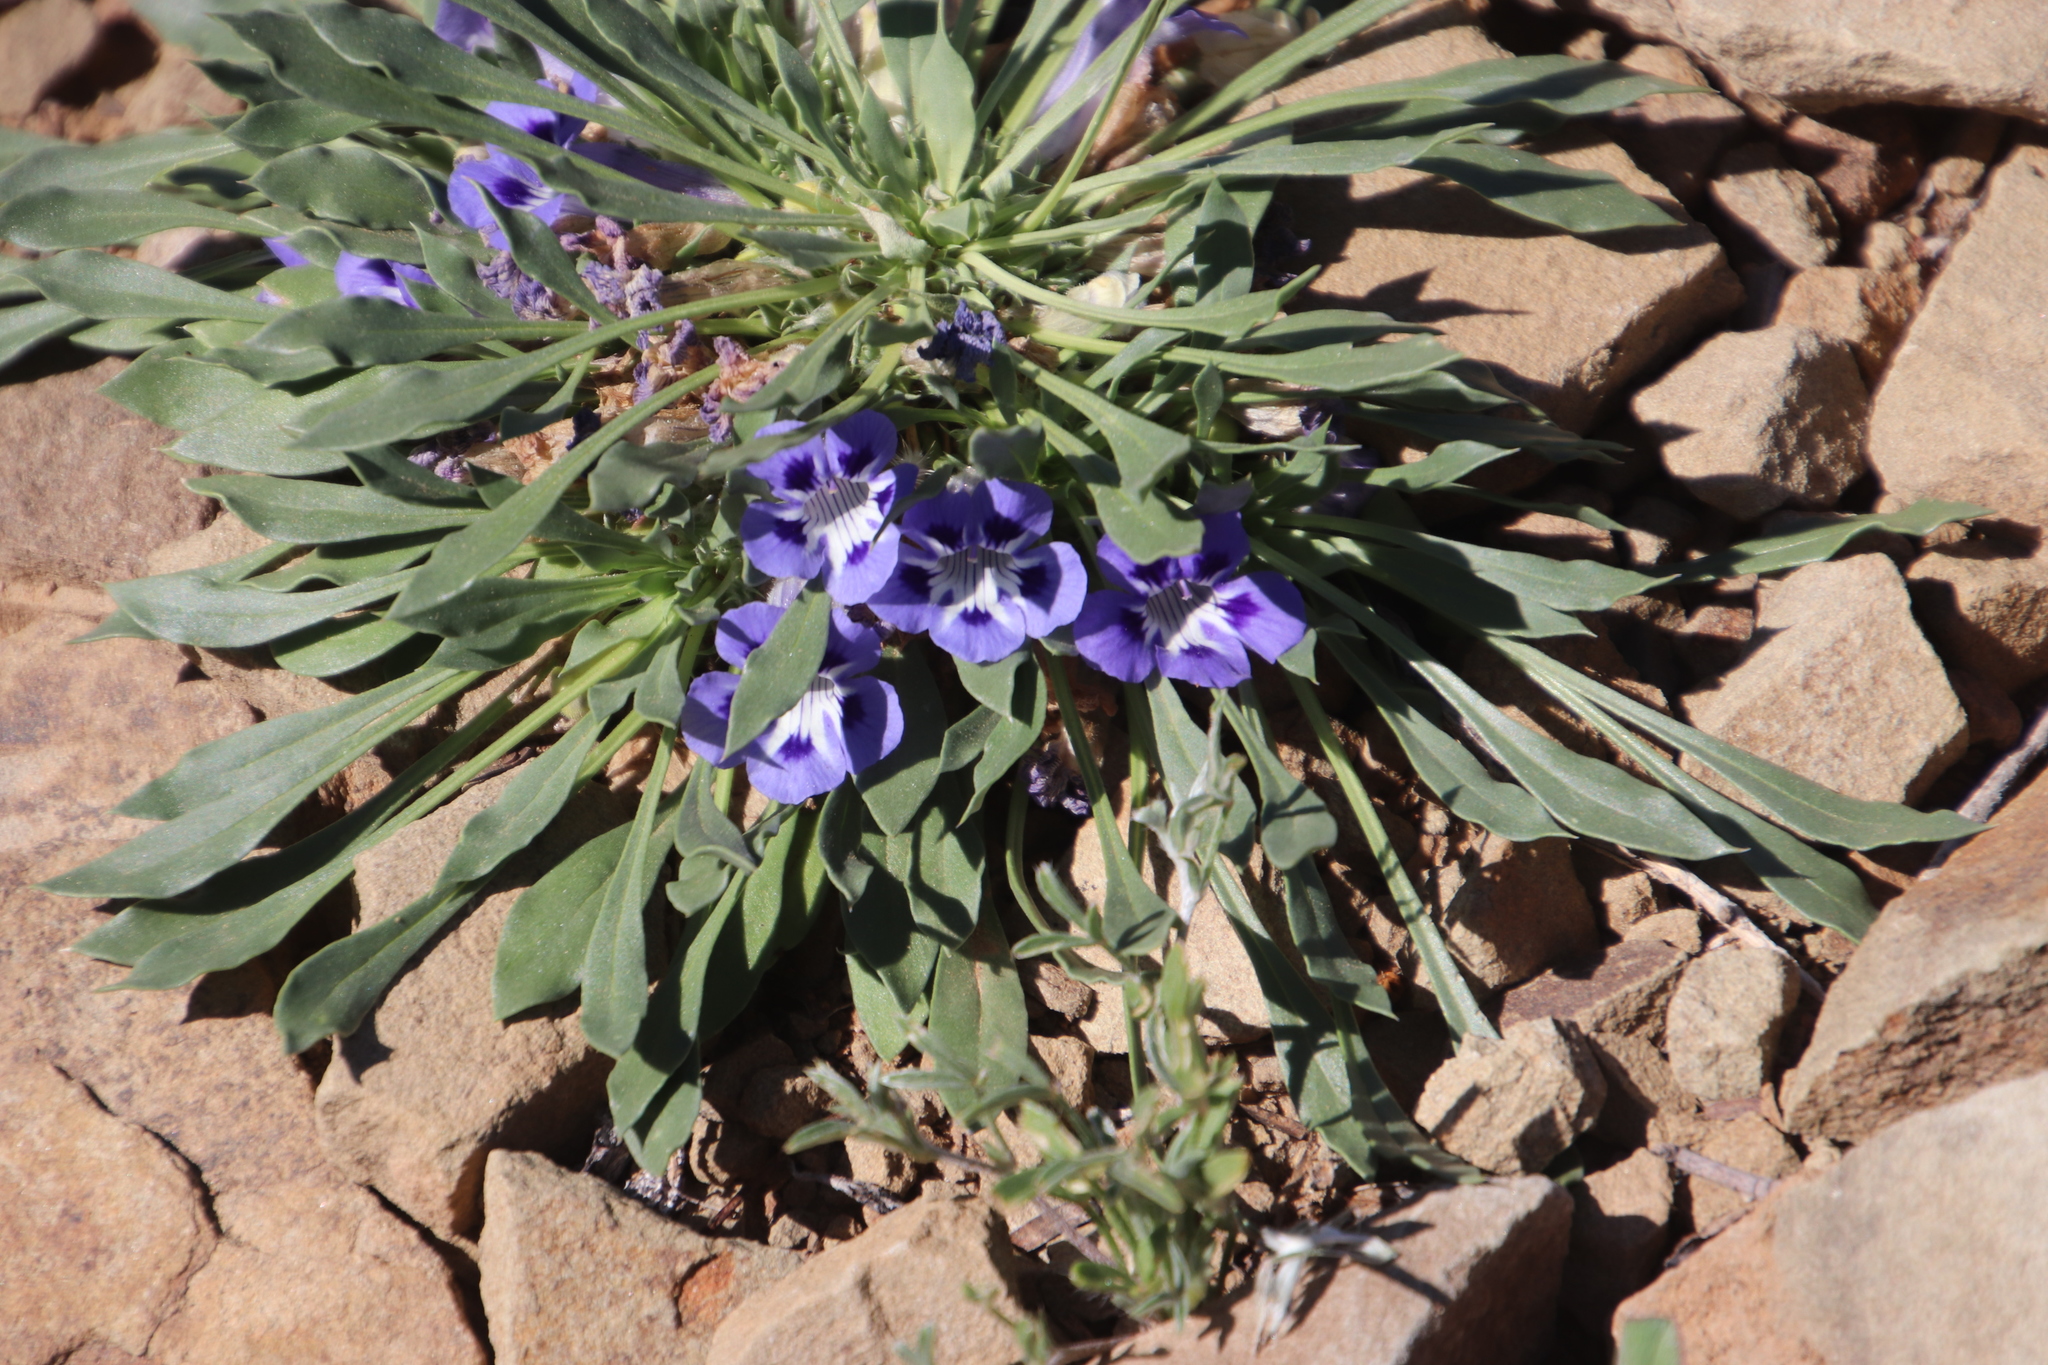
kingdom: Plantae
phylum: Tracheophyta
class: Magnoliopsida
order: Lamiales
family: Scrophulariaceae
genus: Aptosimum
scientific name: Aptosimum indivisum
